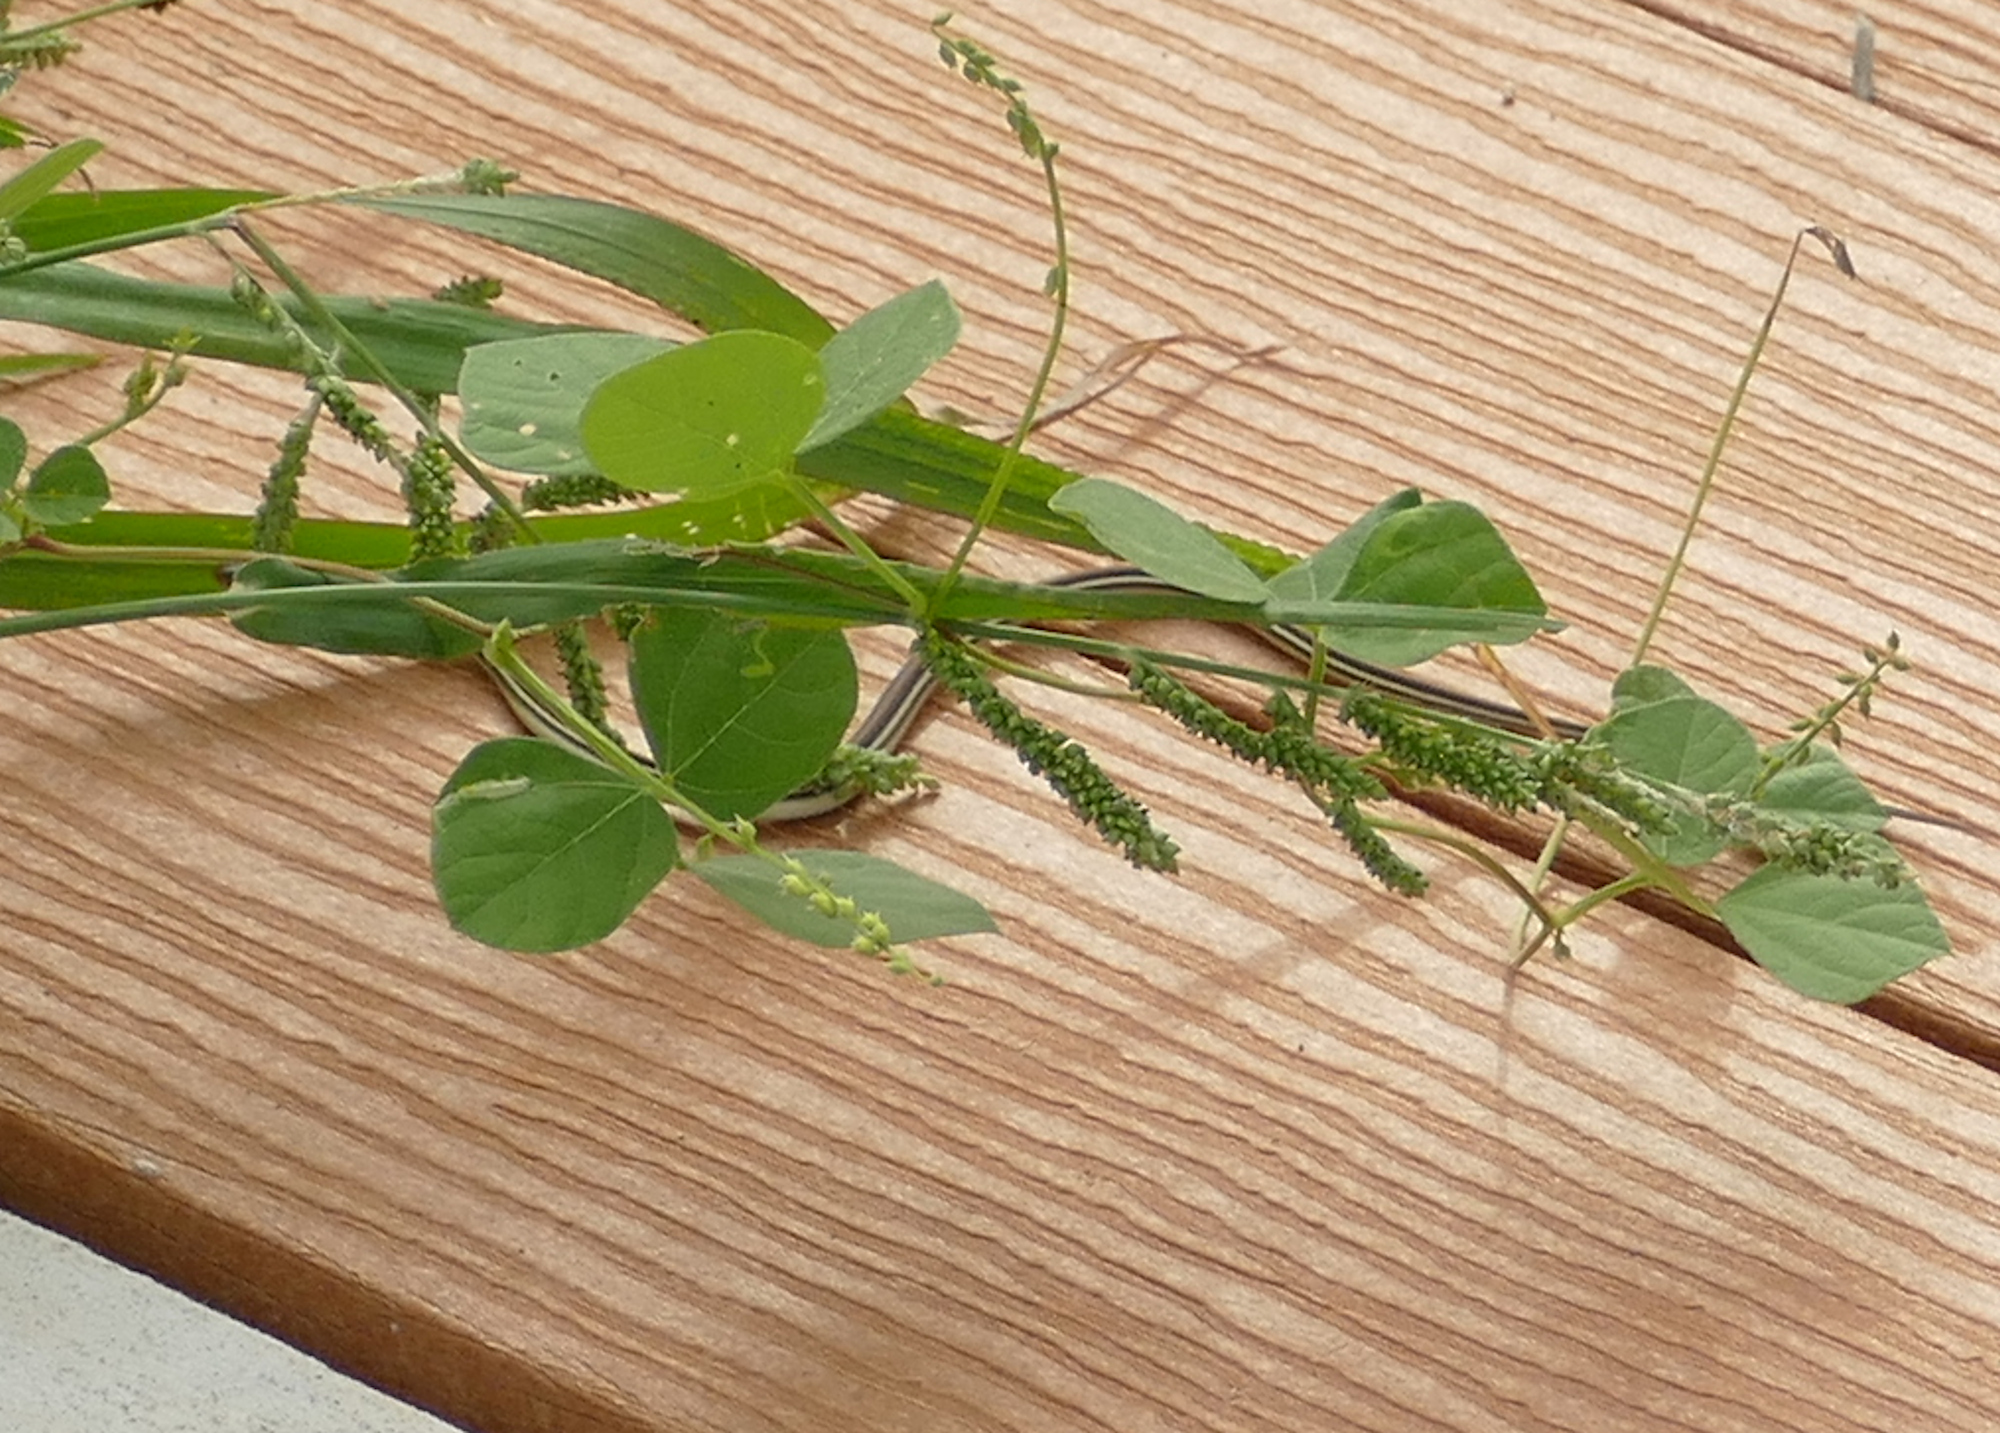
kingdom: Animalia
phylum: Chordata
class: Squamata
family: Colubridae
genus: Thamnophis
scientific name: Thamnophis proximus
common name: Western ribbon snake
